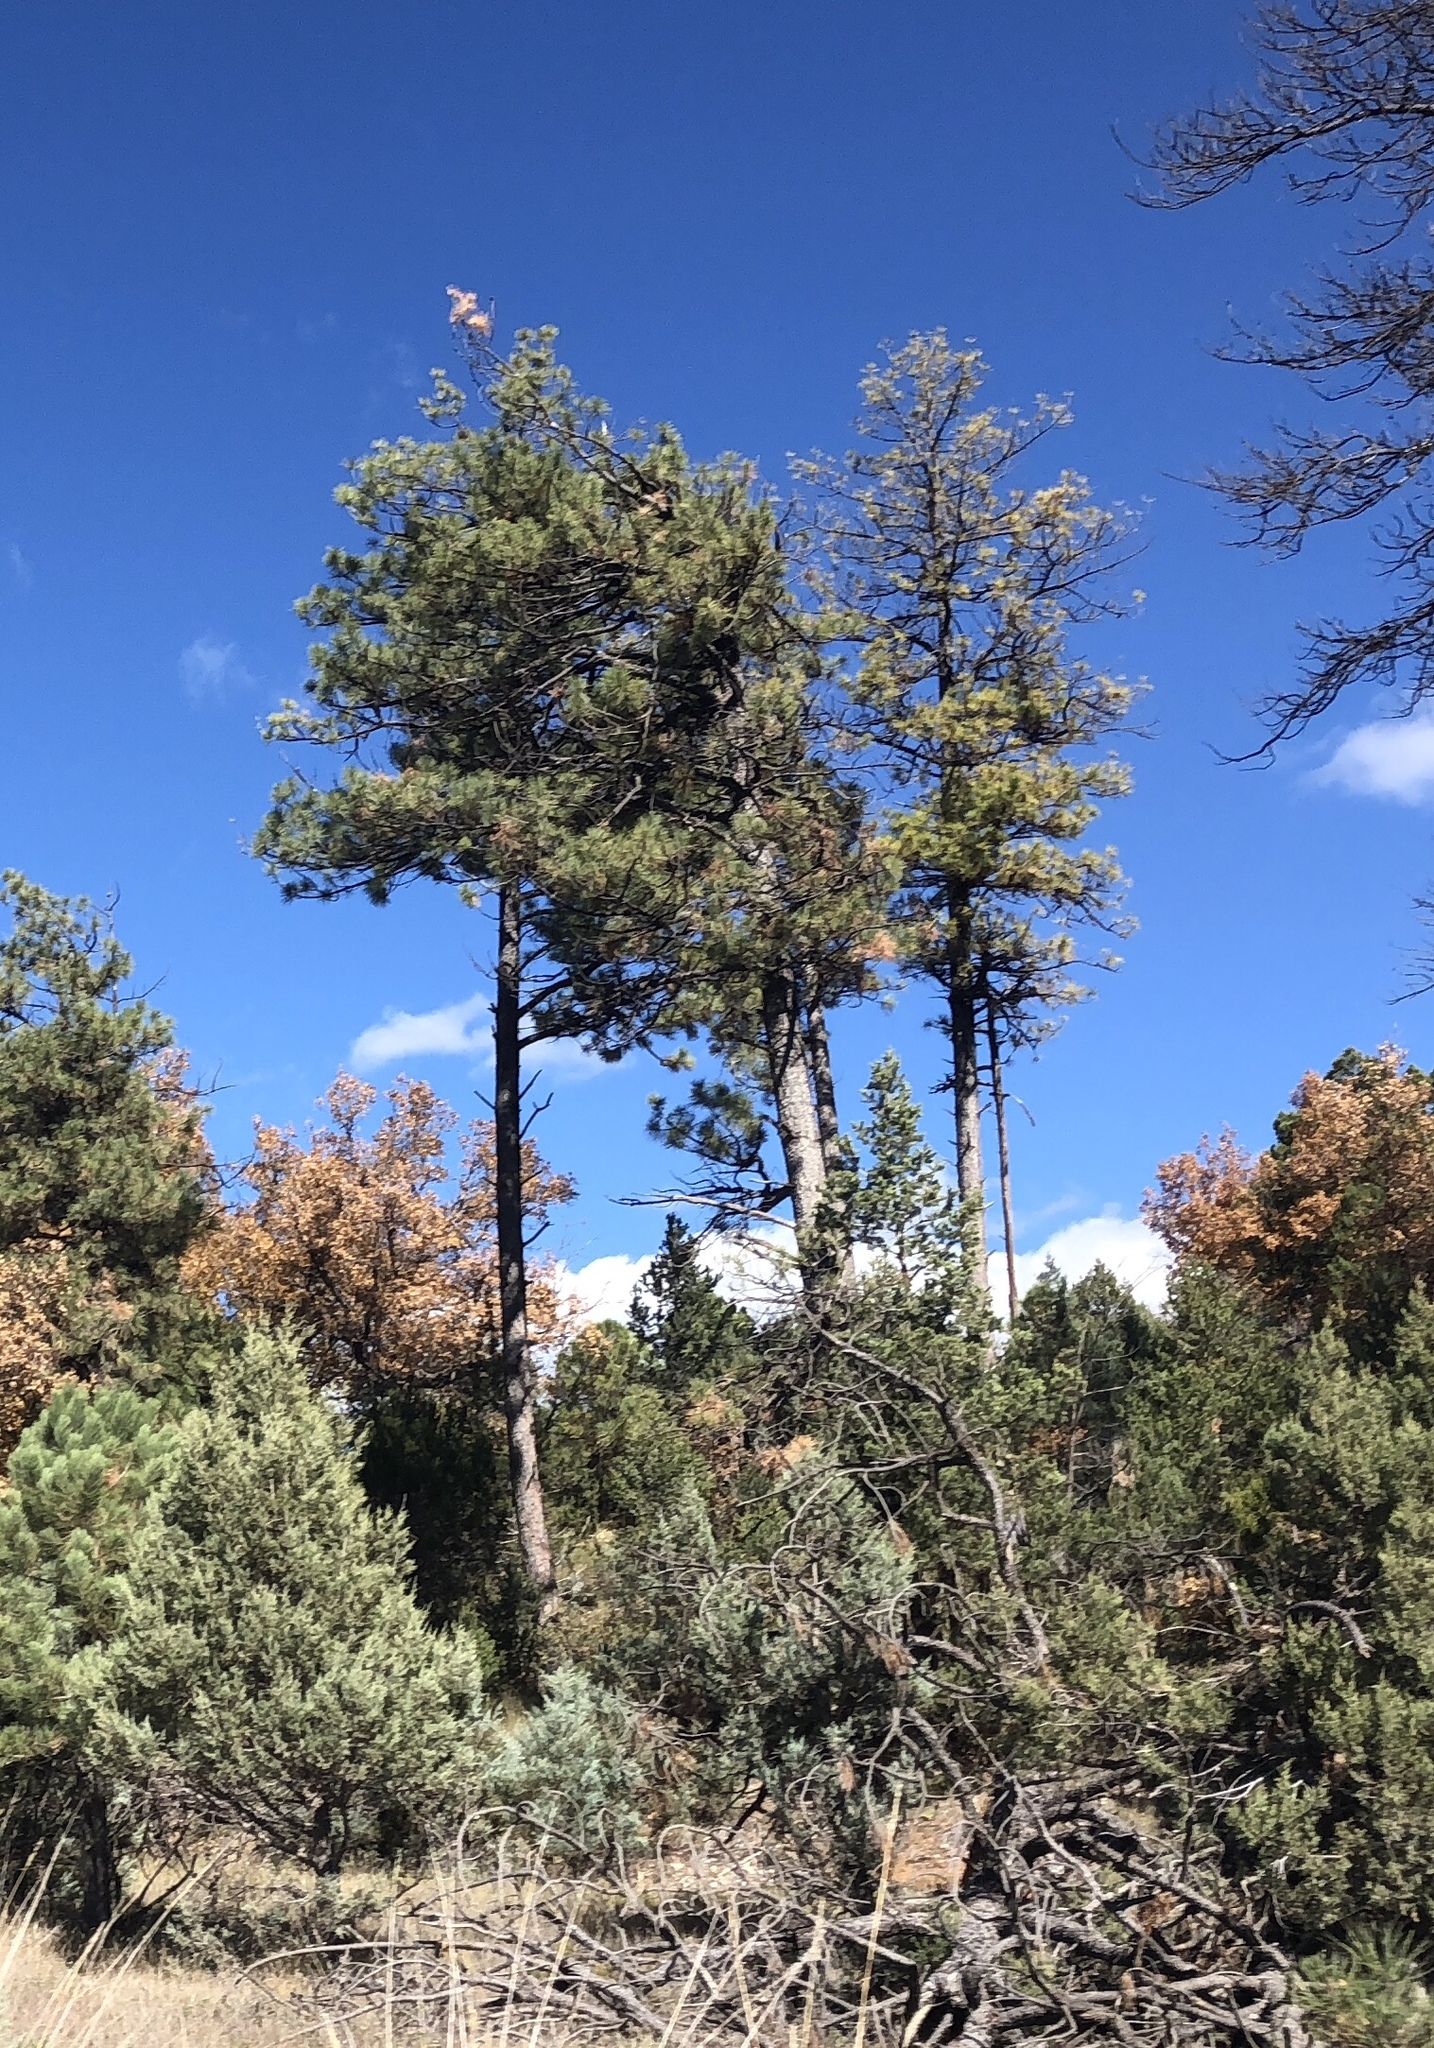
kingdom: Plantae
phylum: Tracheophyta
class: Pinopsida
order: Pinales
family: Pinaceae
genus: Pinus
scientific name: Pinus ponderosa
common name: Western yellow-pine
